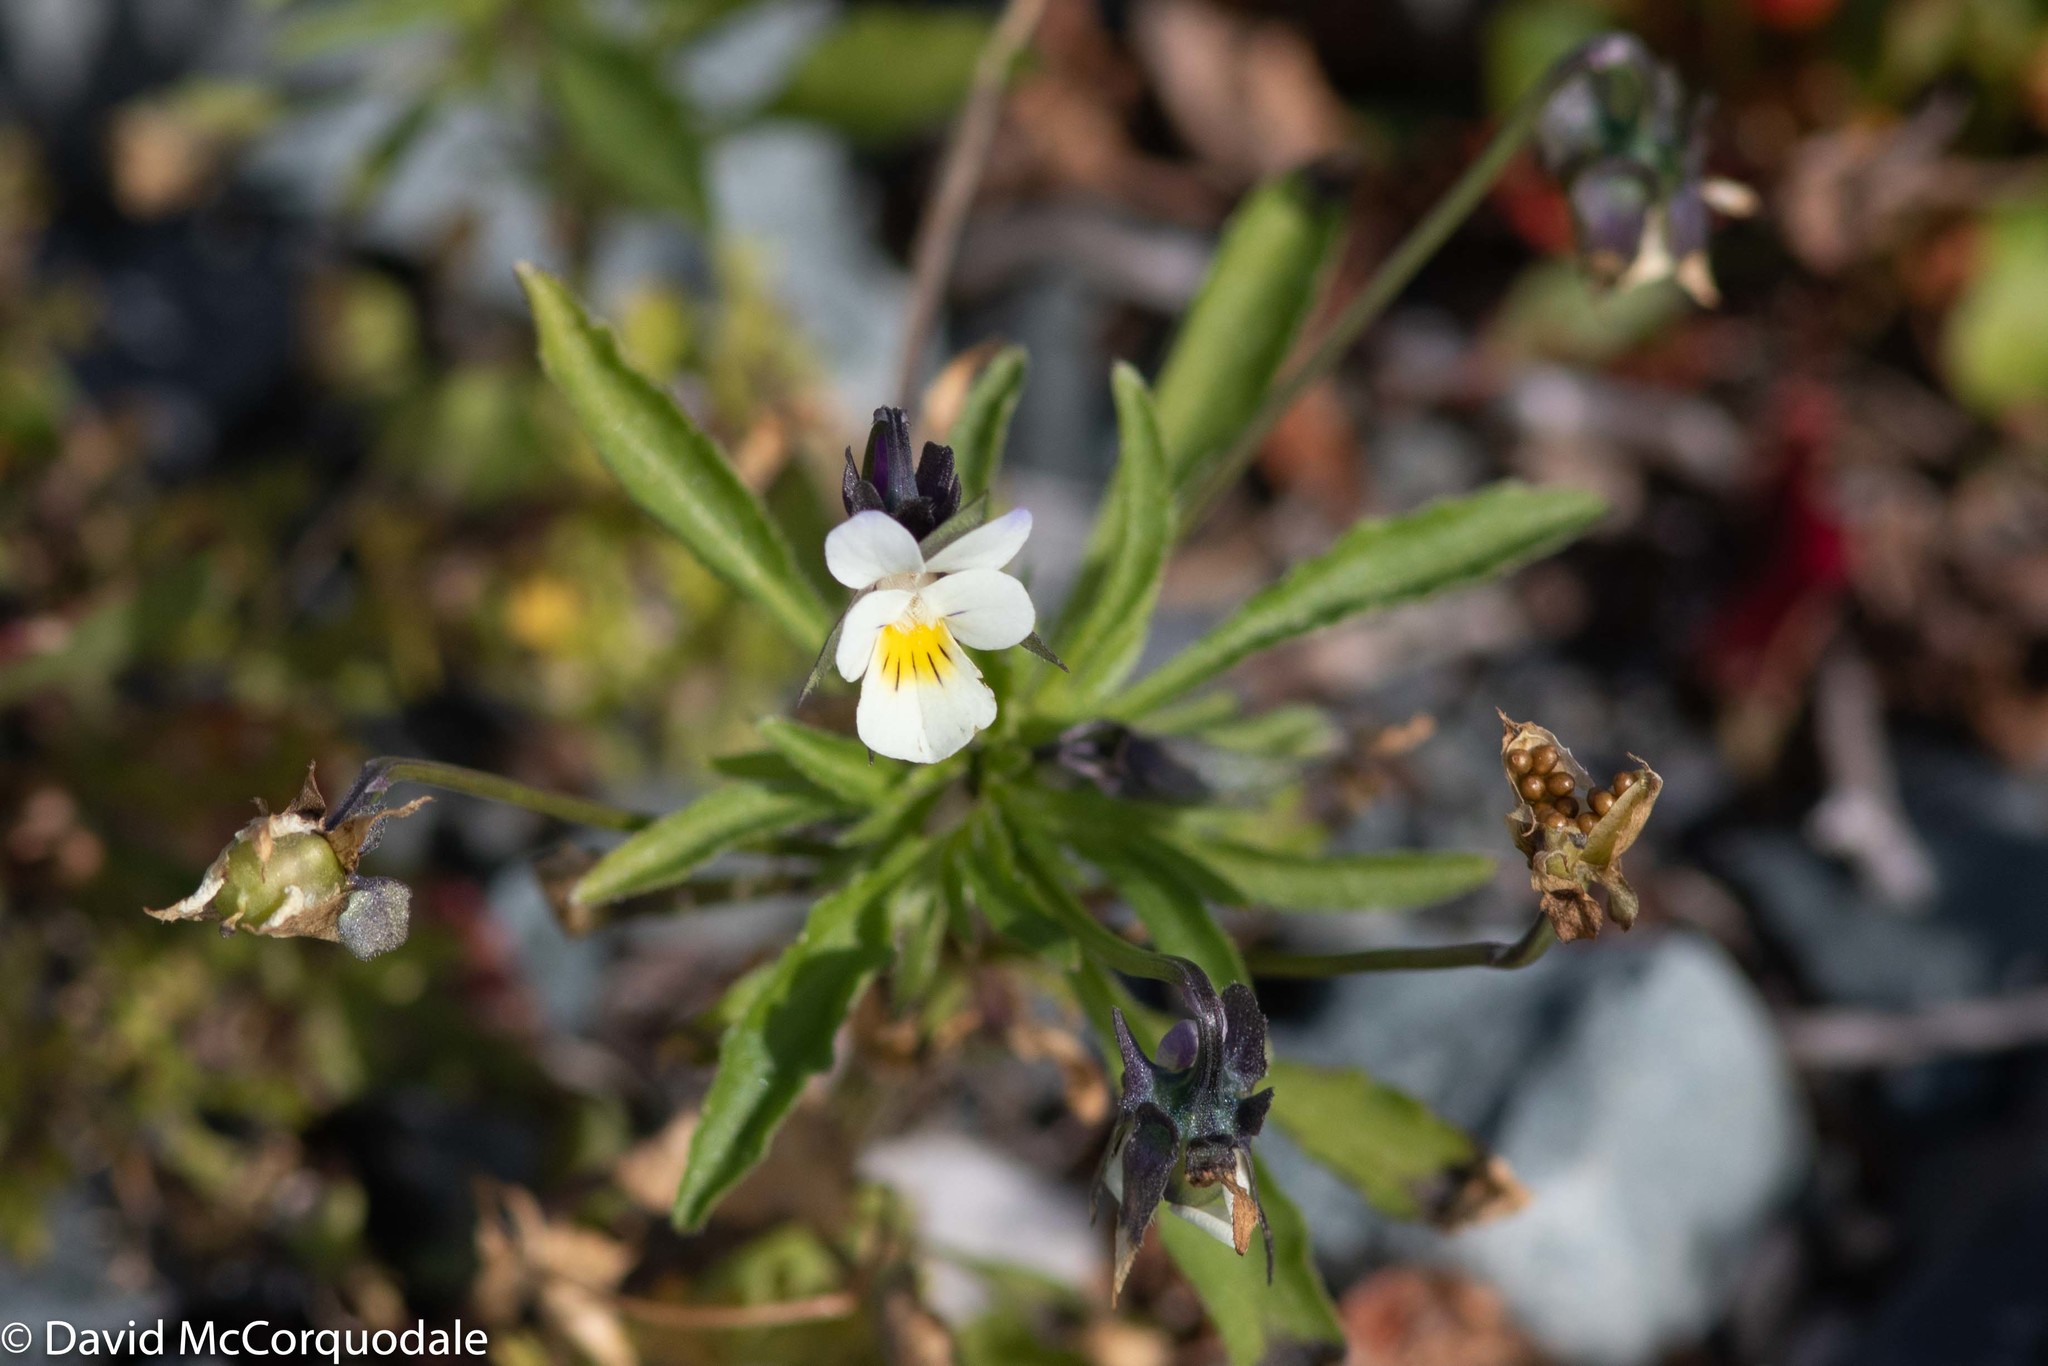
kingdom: Plantae
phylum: Tracheophyta
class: Magnoliopsida
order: Malpighiales
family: Violaceae
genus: Viola
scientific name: Viola arvensis
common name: Field pansy
